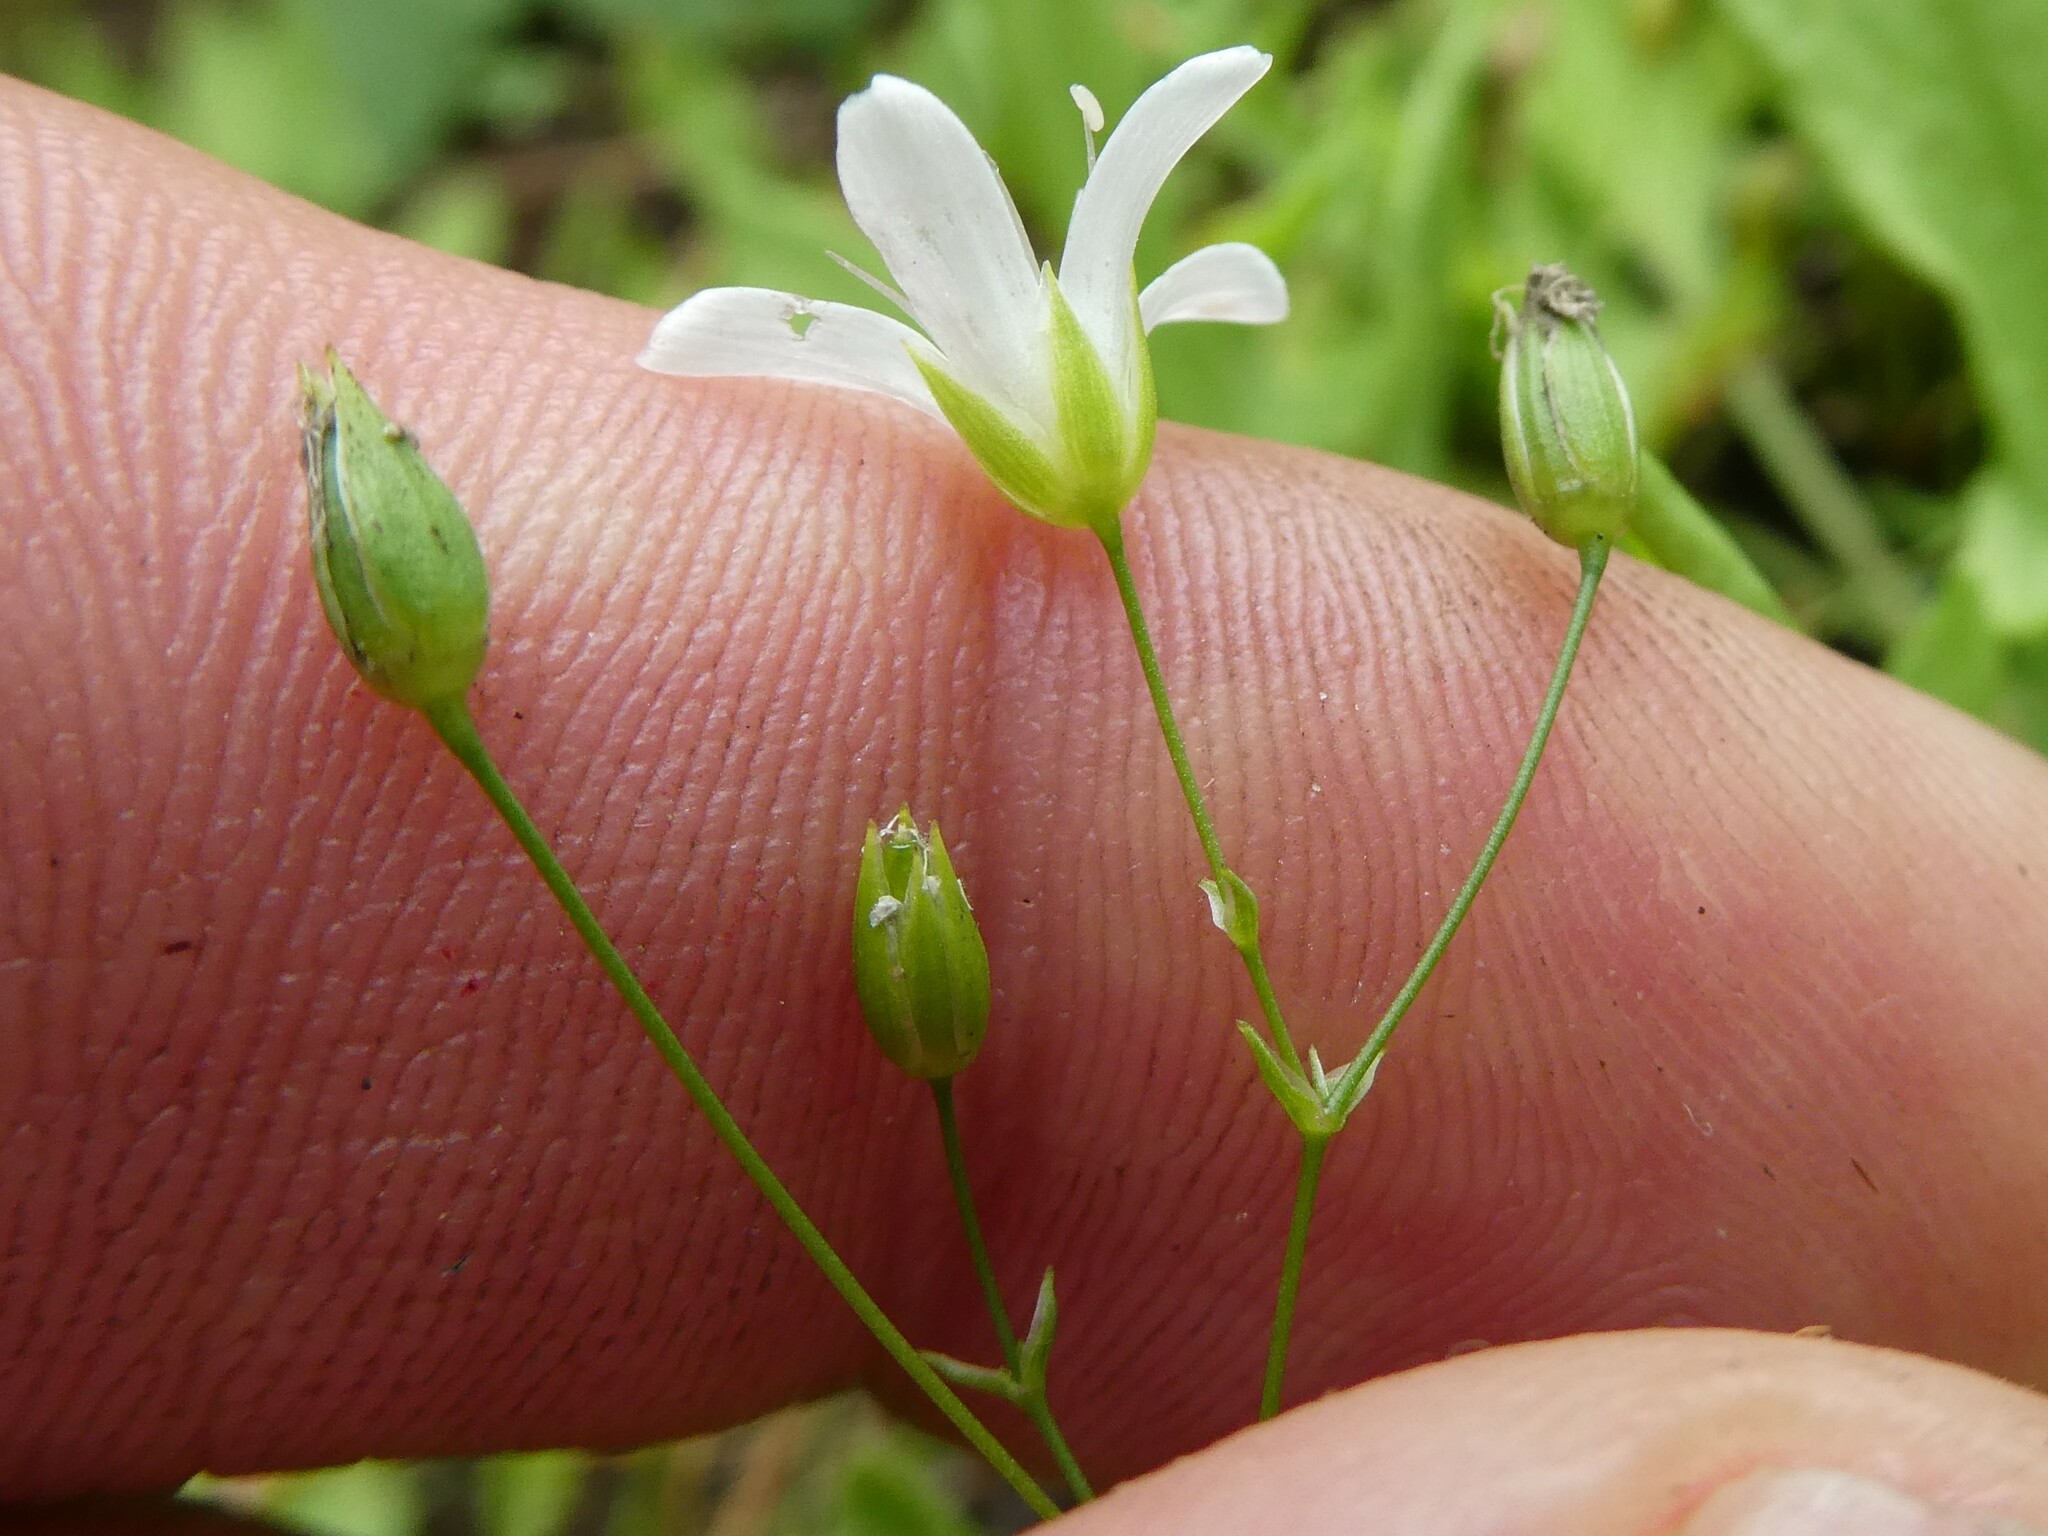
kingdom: Plantae
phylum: Tracheophyta
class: Magnoliopsida
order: Caryophyllales
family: Caryophyllaceae
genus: Sabulina
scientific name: Sabulina michauxii
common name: Michaux's stitchwort
